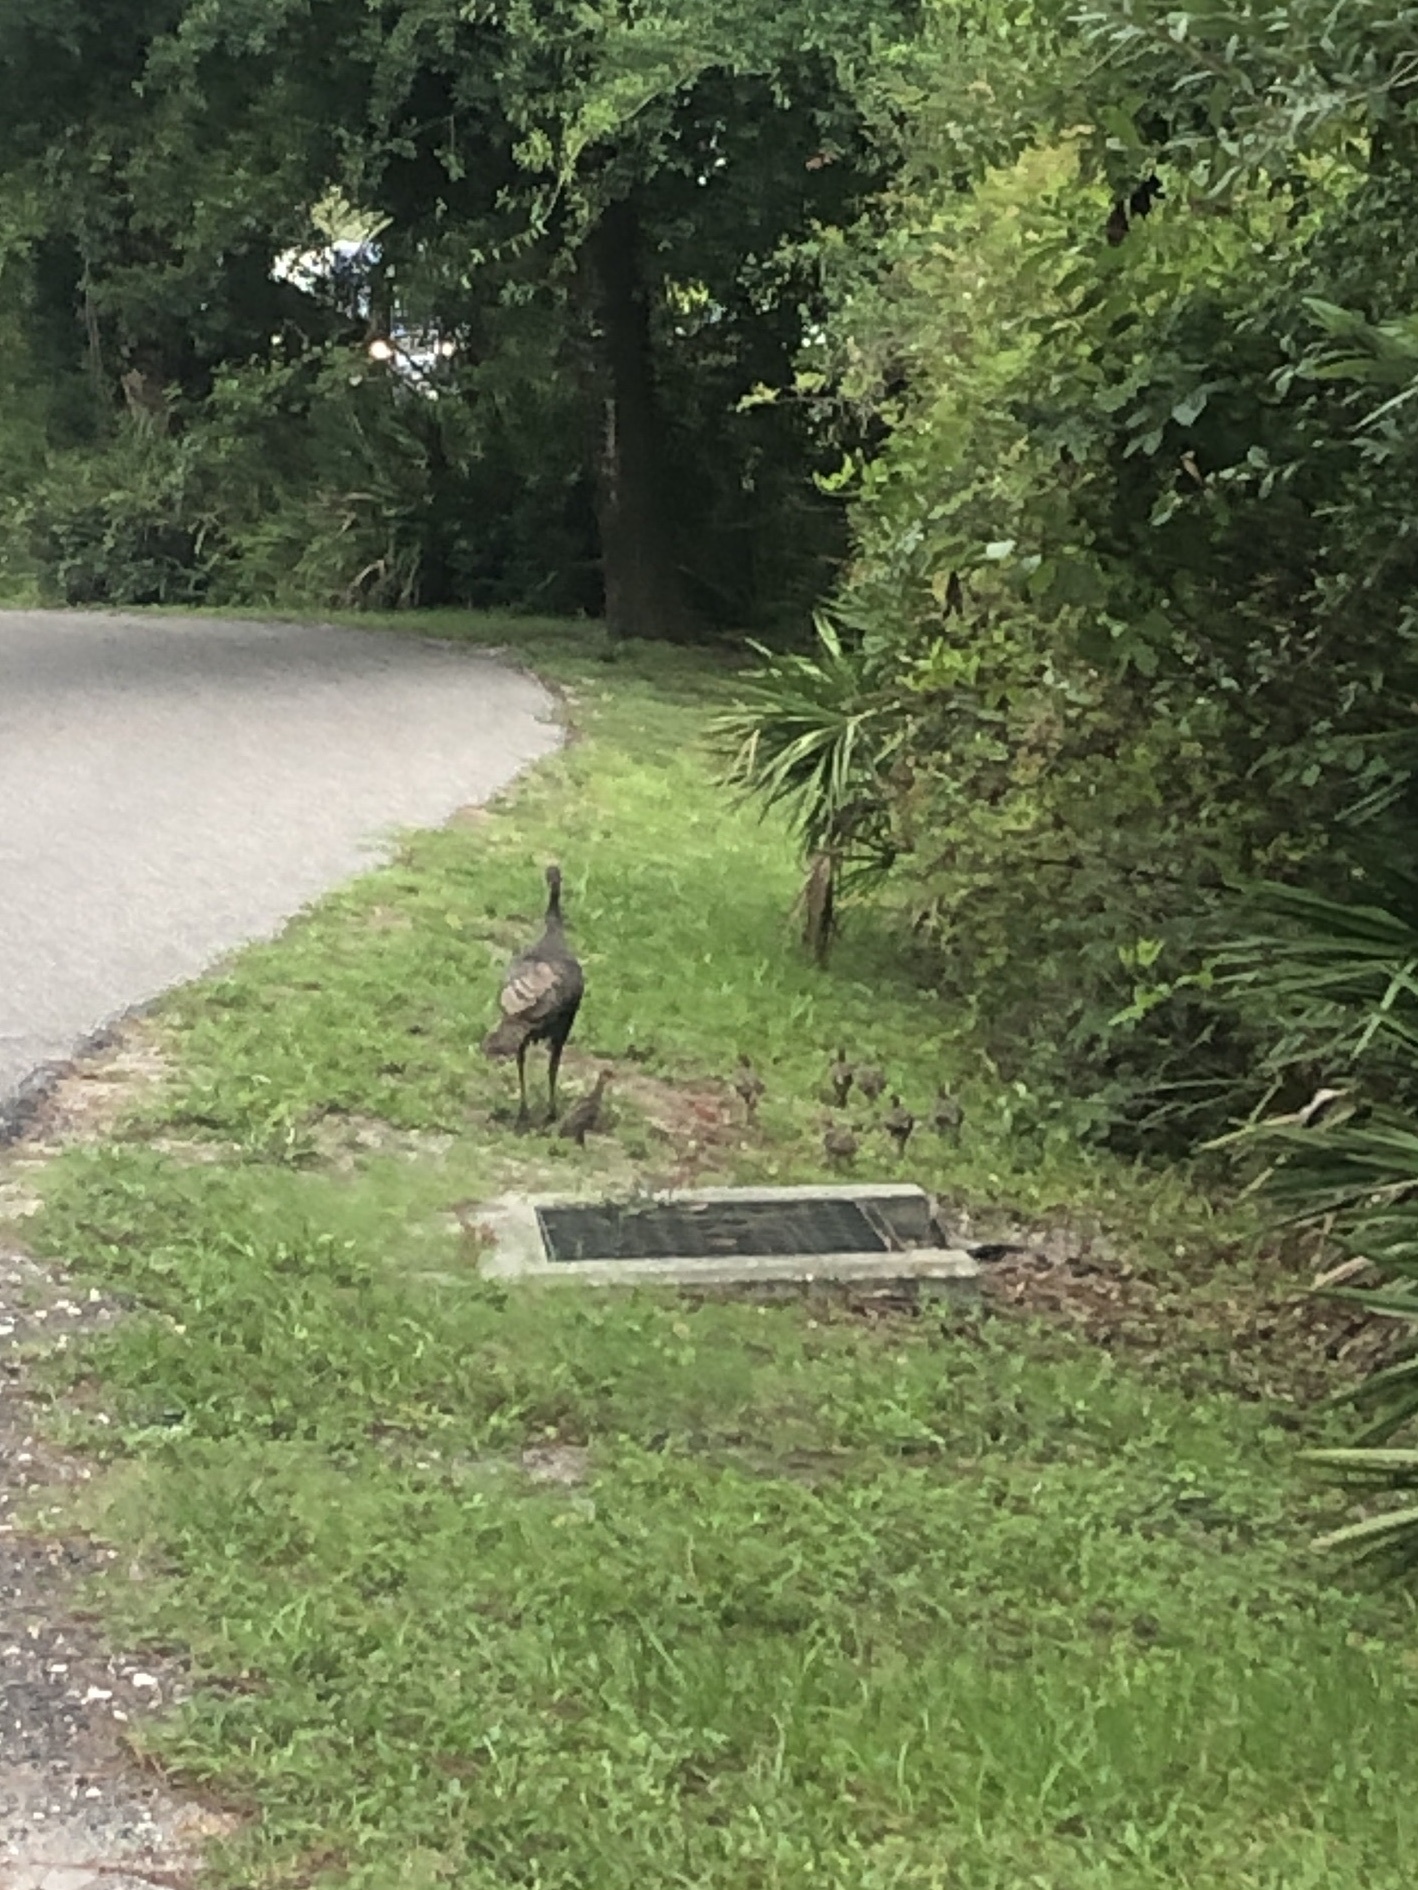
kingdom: Animalia
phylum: Chordata
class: Aves
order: Galliformes
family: Phasianidae
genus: Meleagris
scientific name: Meleagris gallopavo
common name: Wild turkey
